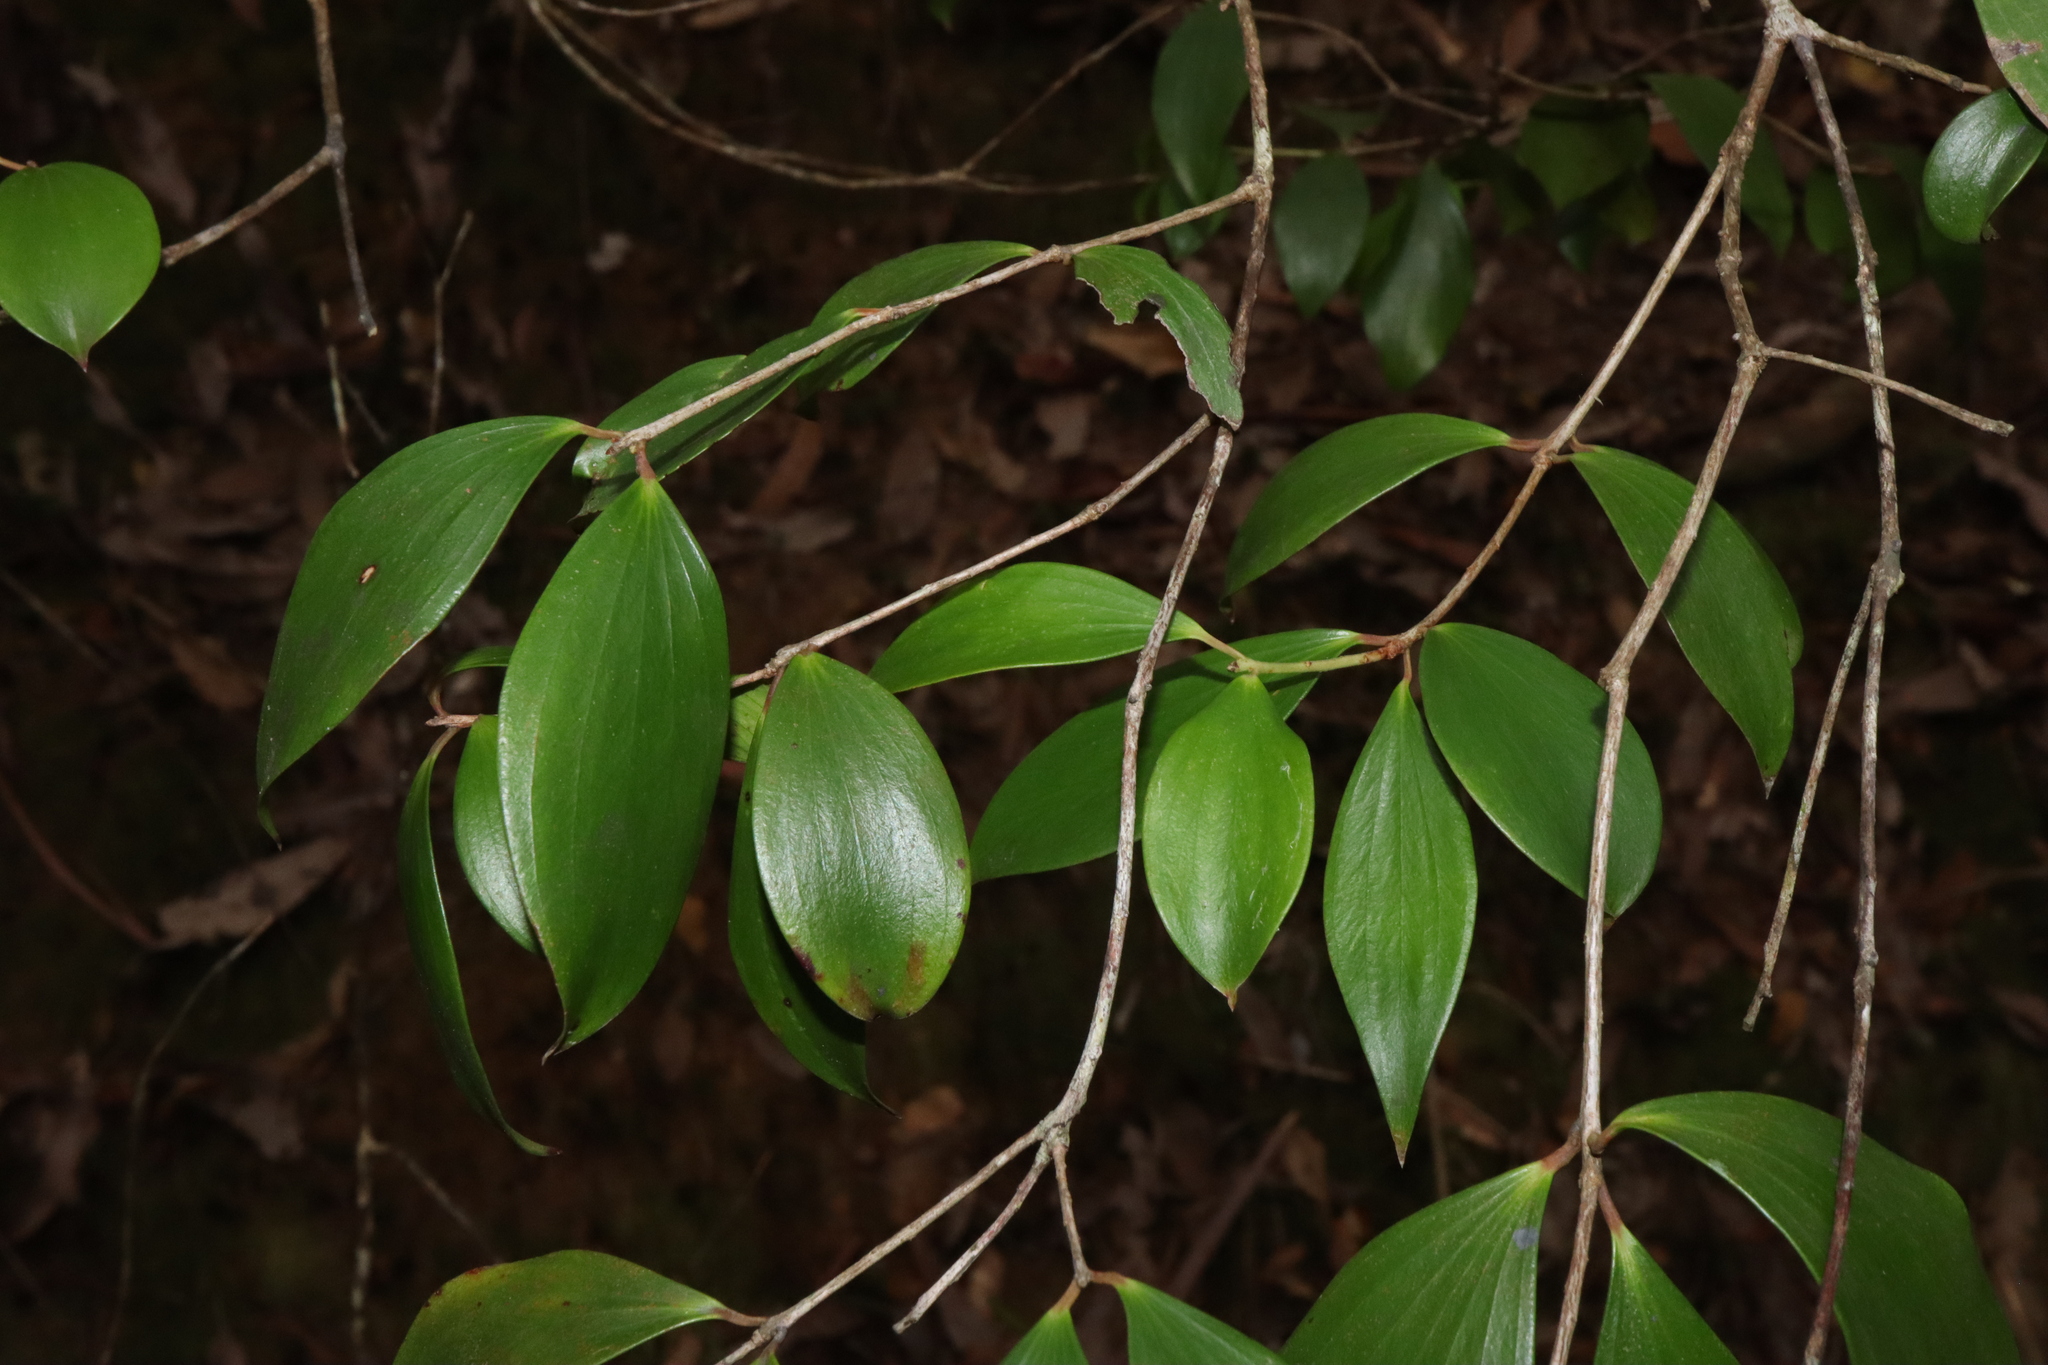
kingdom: Plantae
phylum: Tracheophyta
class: Magnoliopsida
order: Ericales
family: Ericaceae
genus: Trochocarpa
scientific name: Trochocarpa laurina
